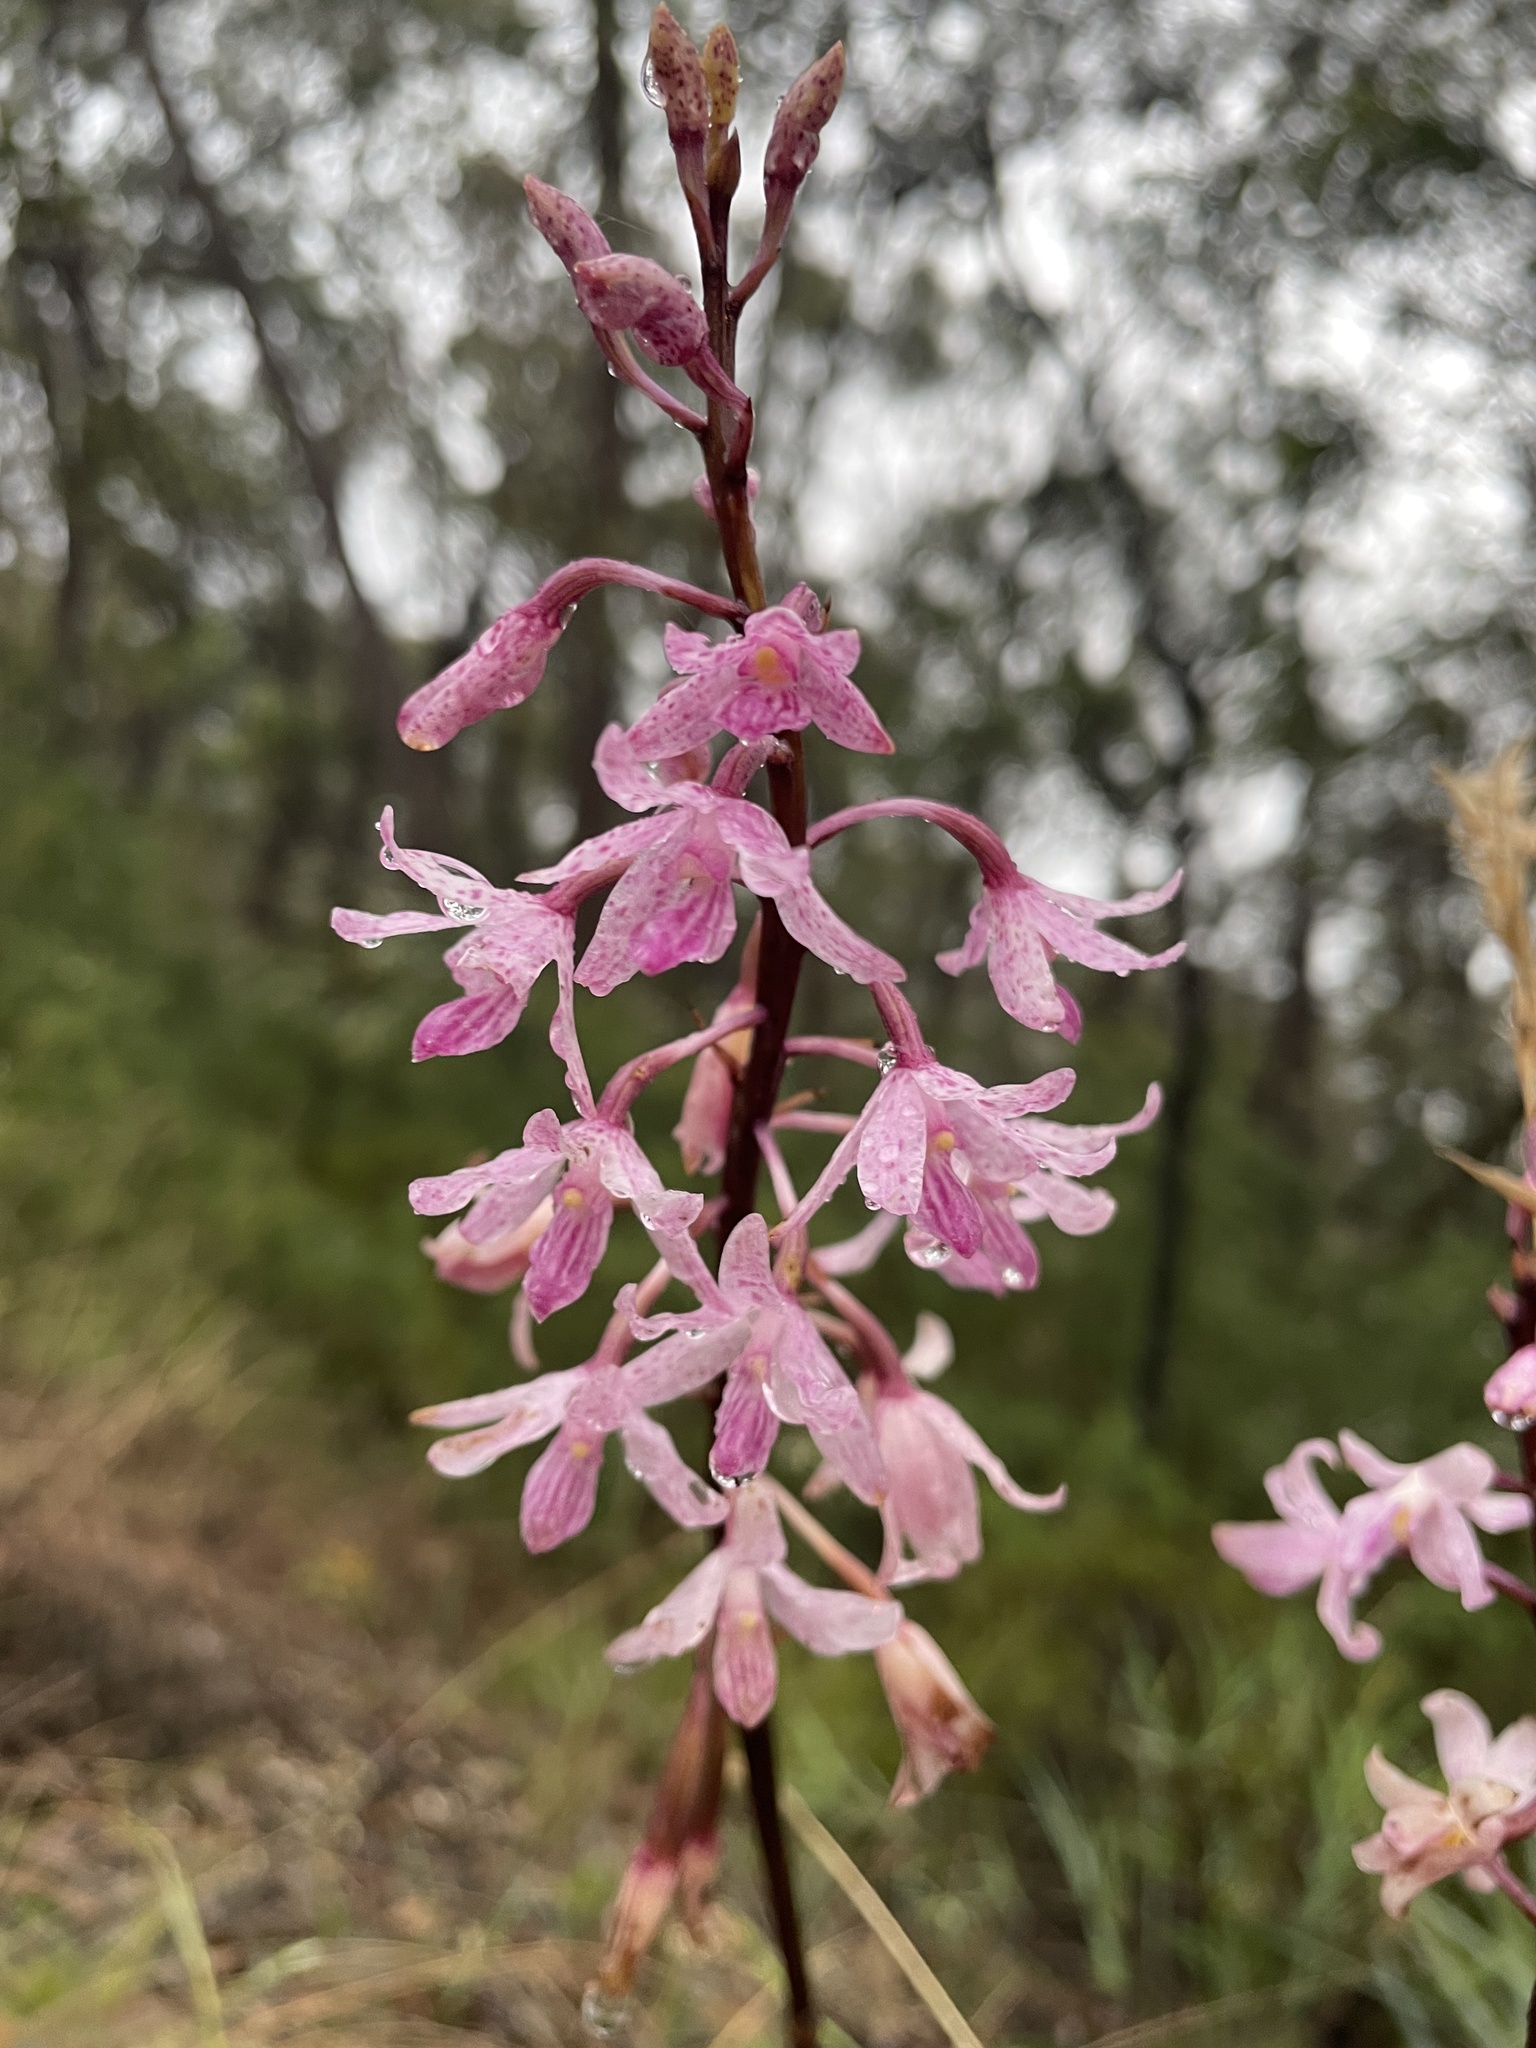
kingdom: Plantae
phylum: Tracheophyta
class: Liliopsida
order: Asparagales
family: Orchidaceae
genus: Dipodium
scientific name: Dipodium roseum
